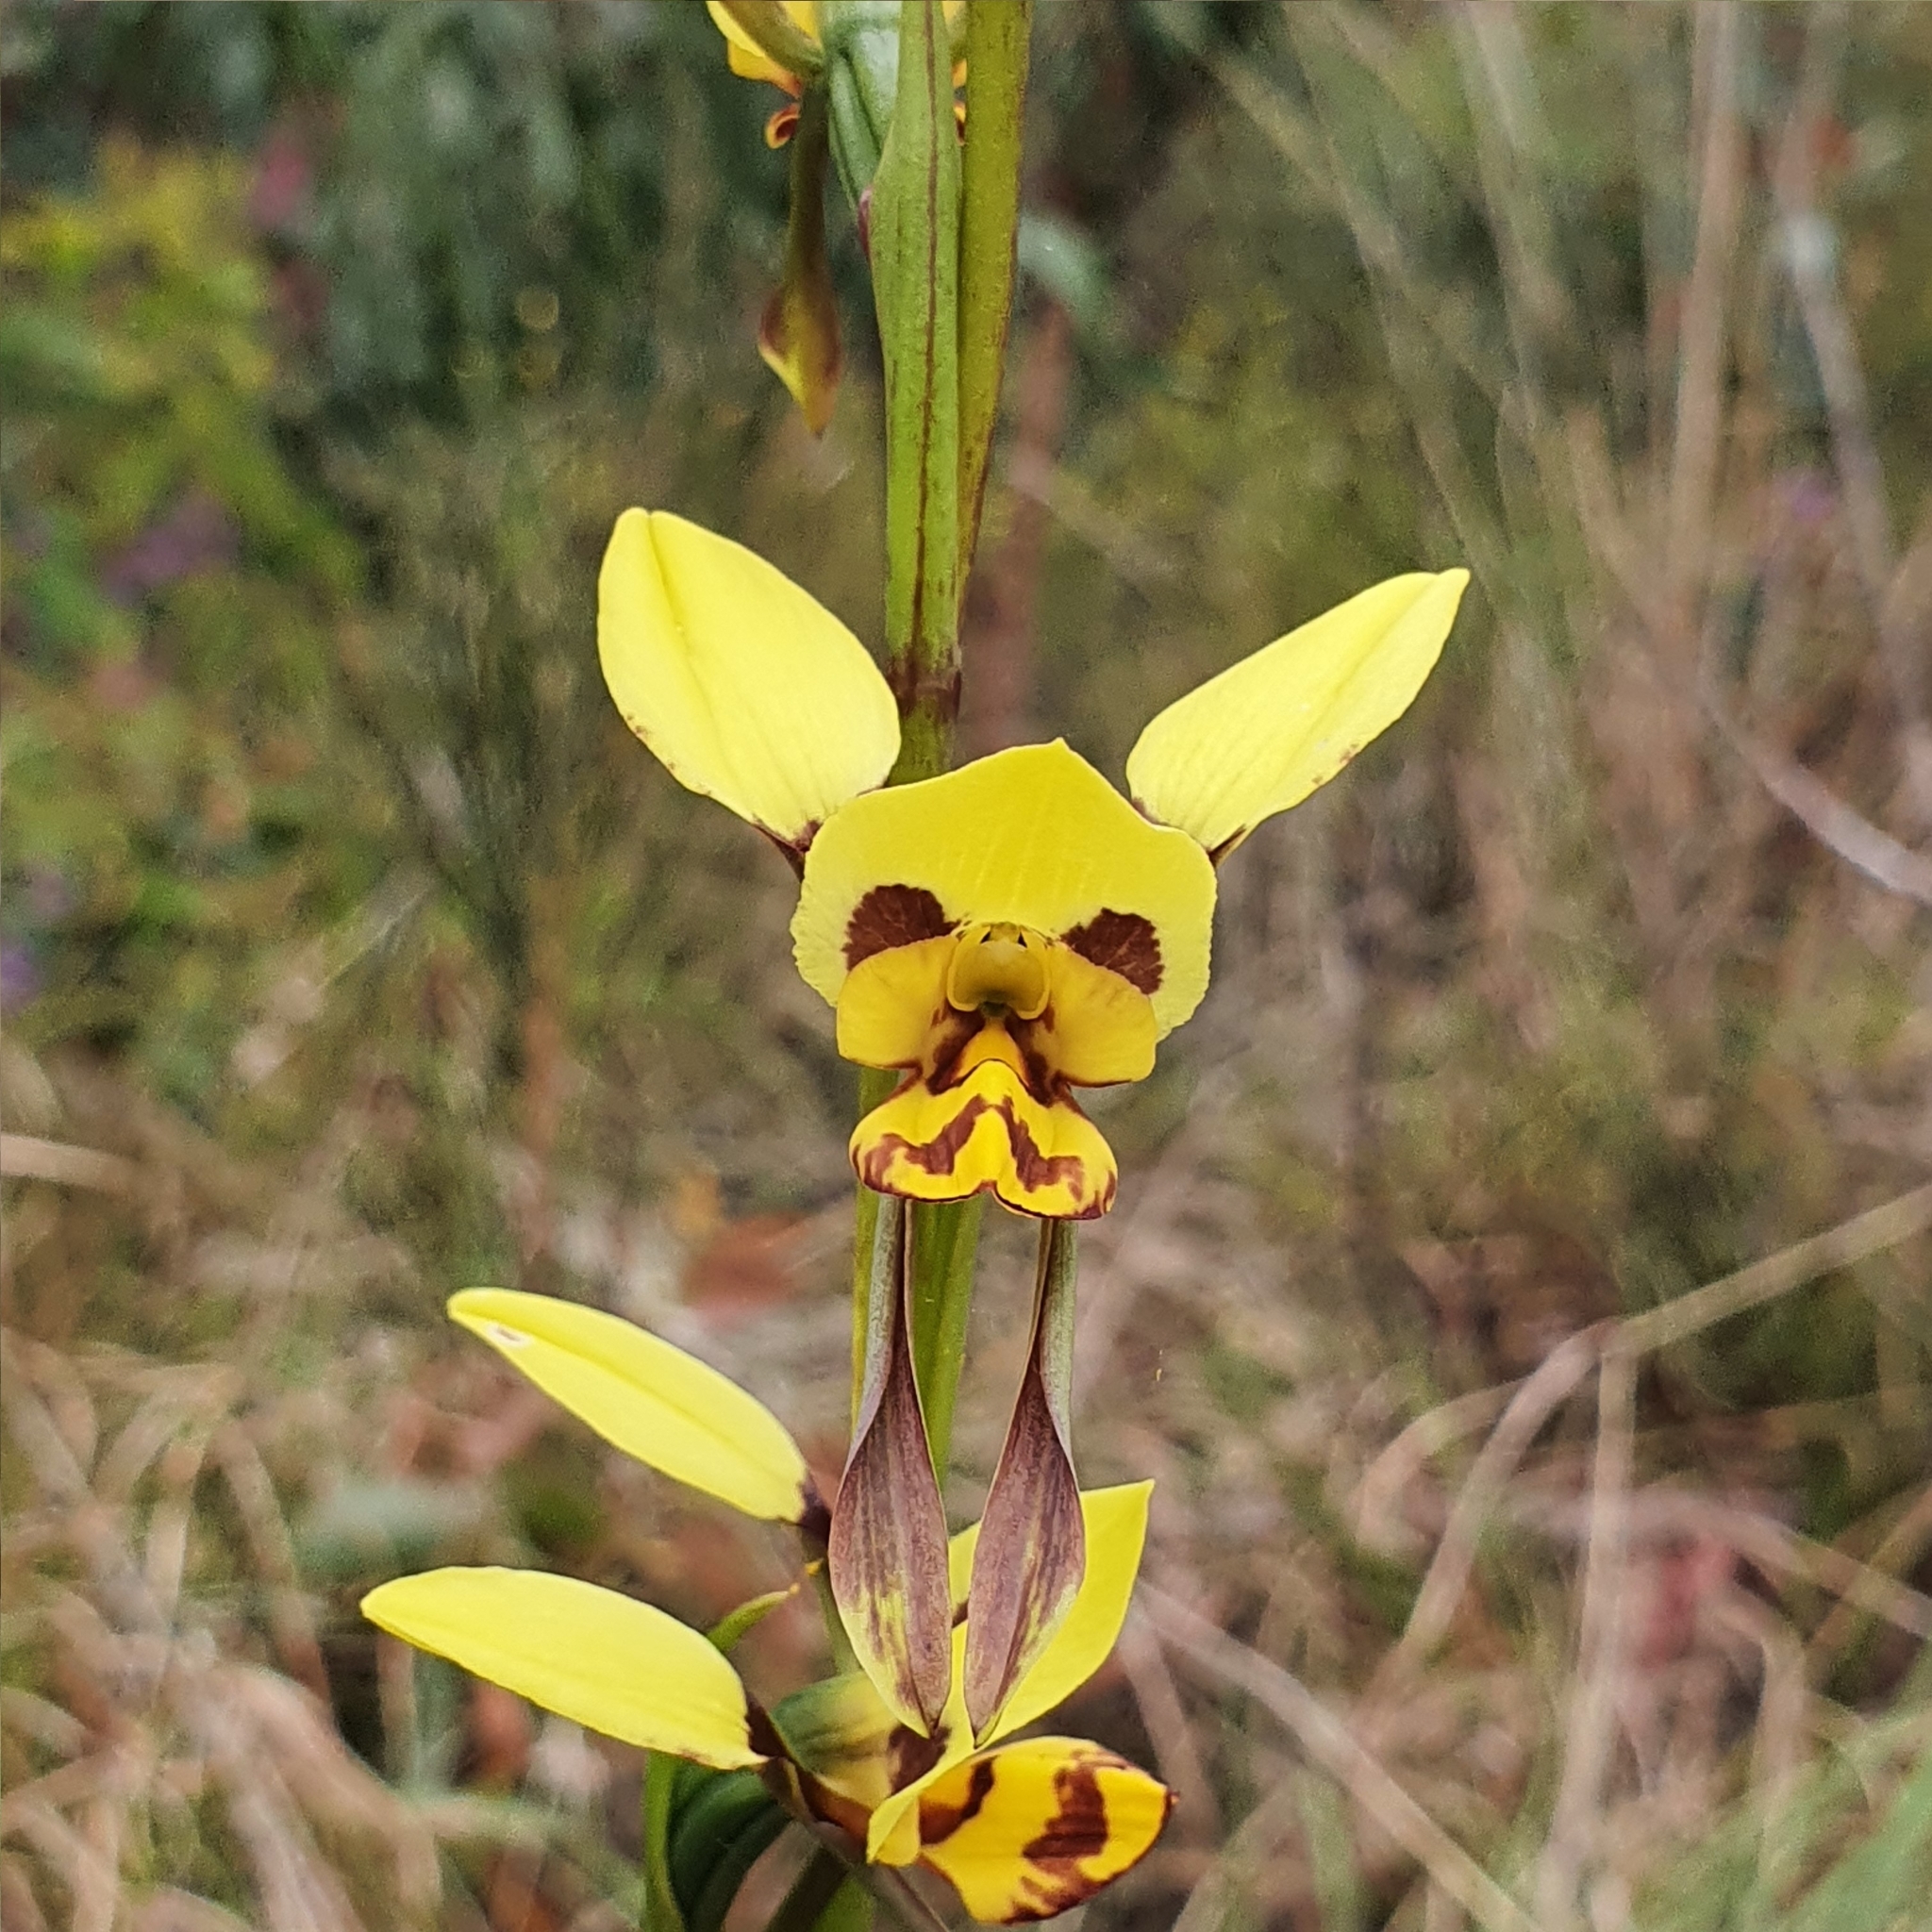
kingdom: Plantae
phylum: Tracheophyta
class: Liliopsida
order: Asparagales
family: Orchidaceae
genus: Diuris
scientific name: Diuris sulphurea
